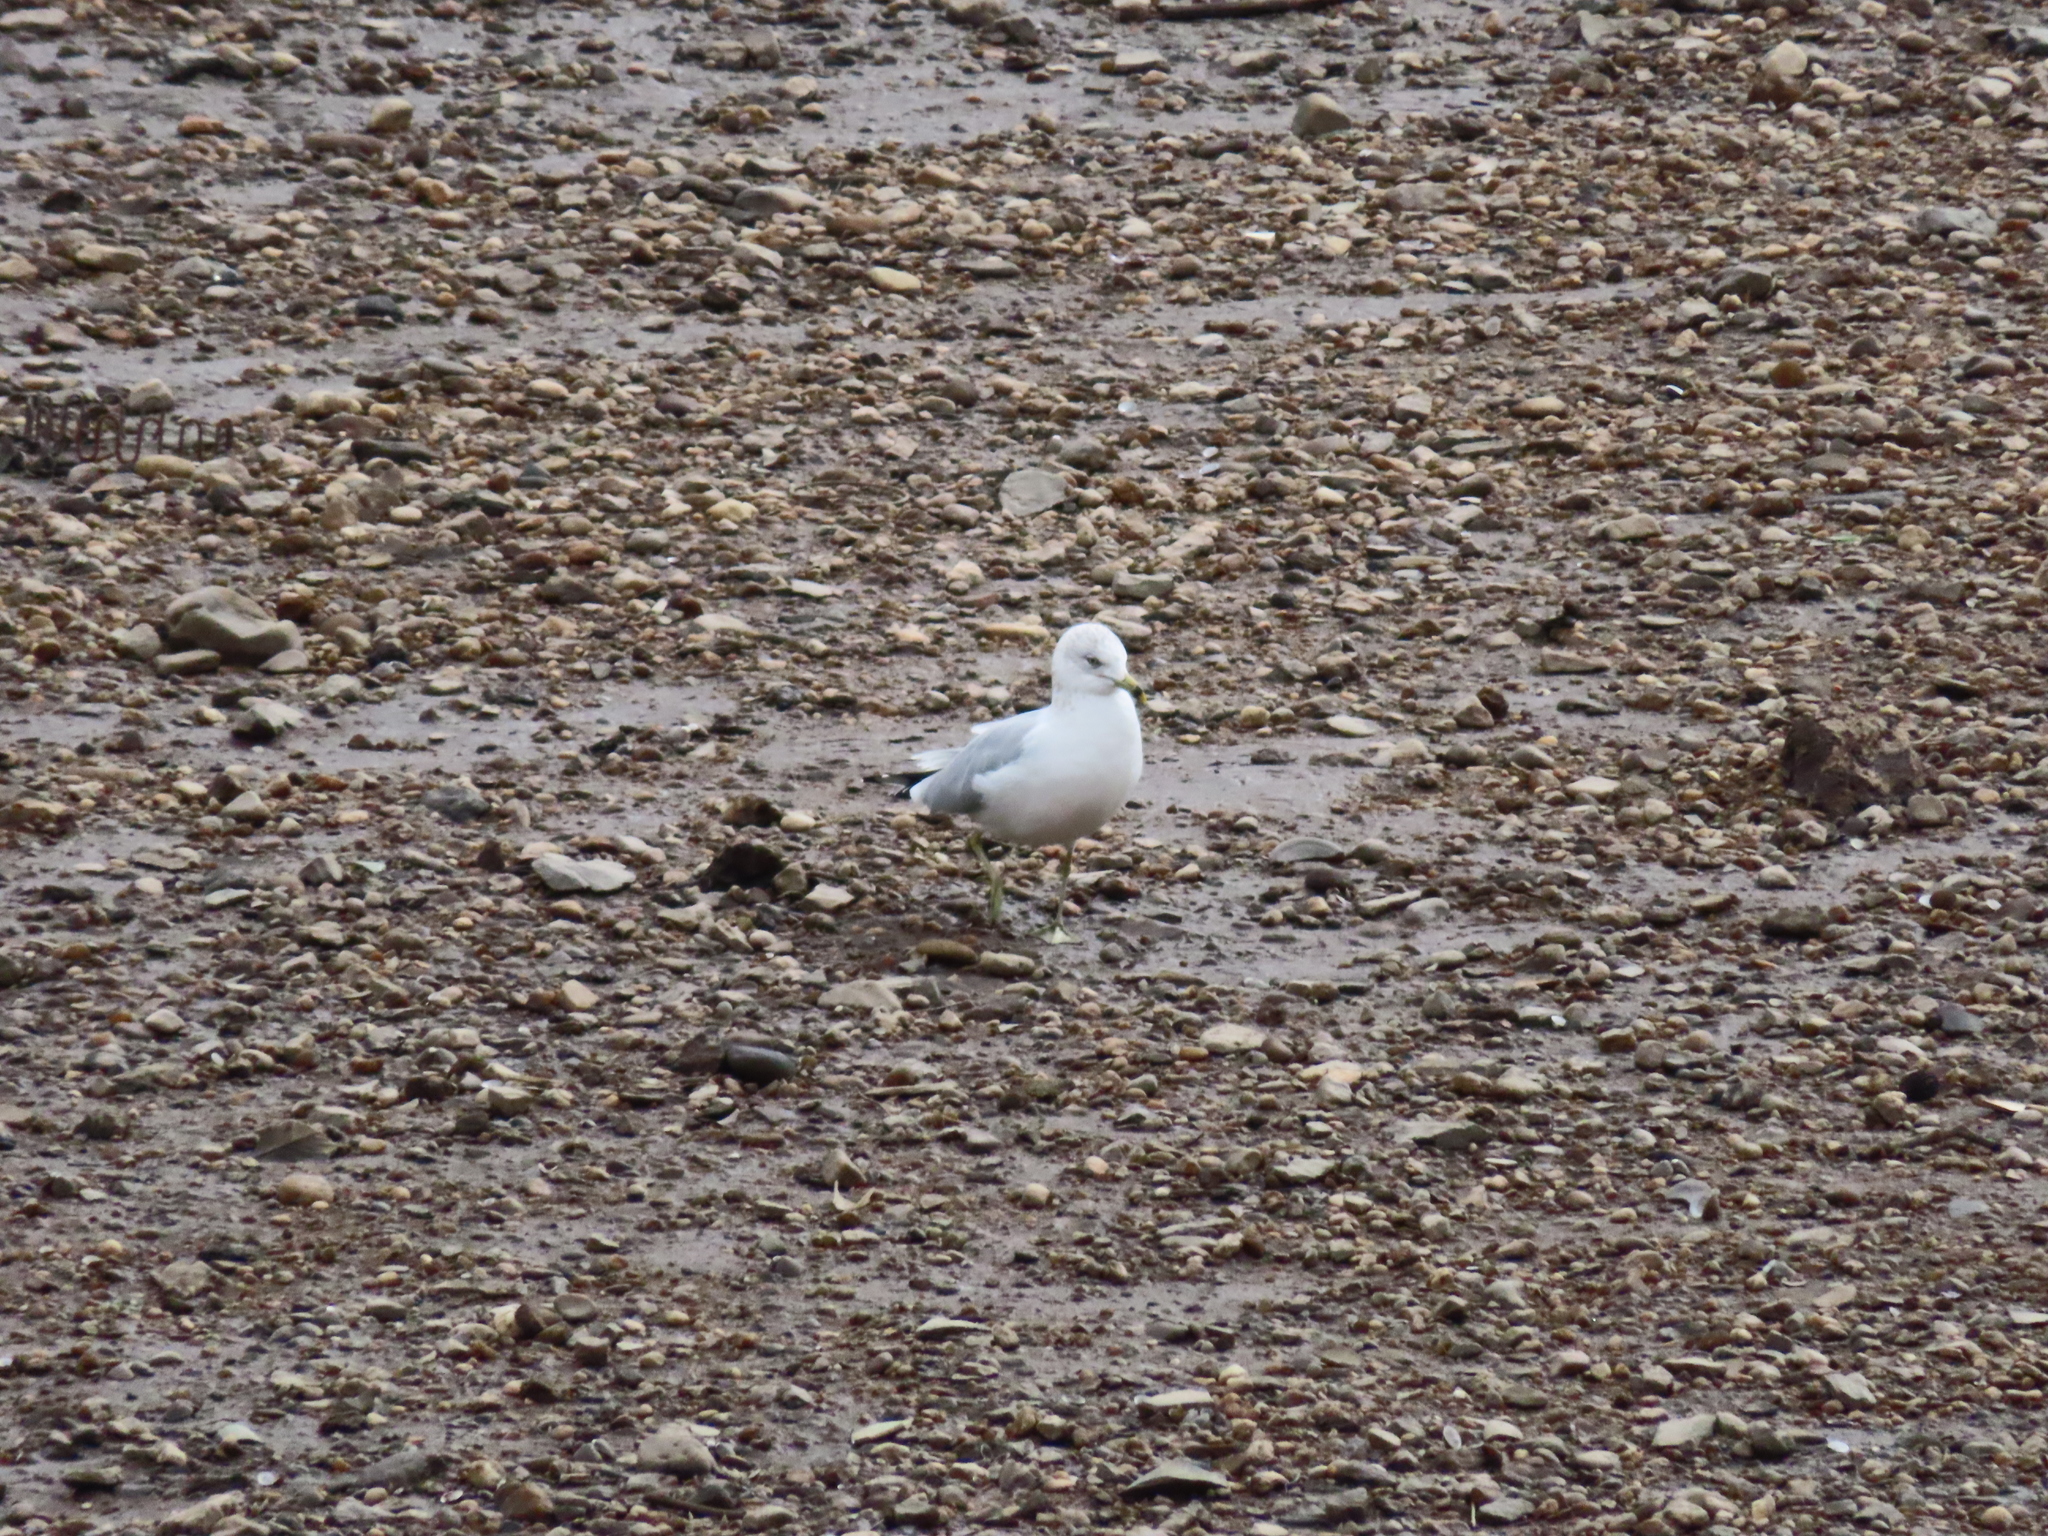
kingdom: Animalia
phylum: Chordata
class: Aves
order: Charadriiformes
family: Laridae
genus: Larus
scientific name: Larus delawarensis
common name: Ring-billed gull
